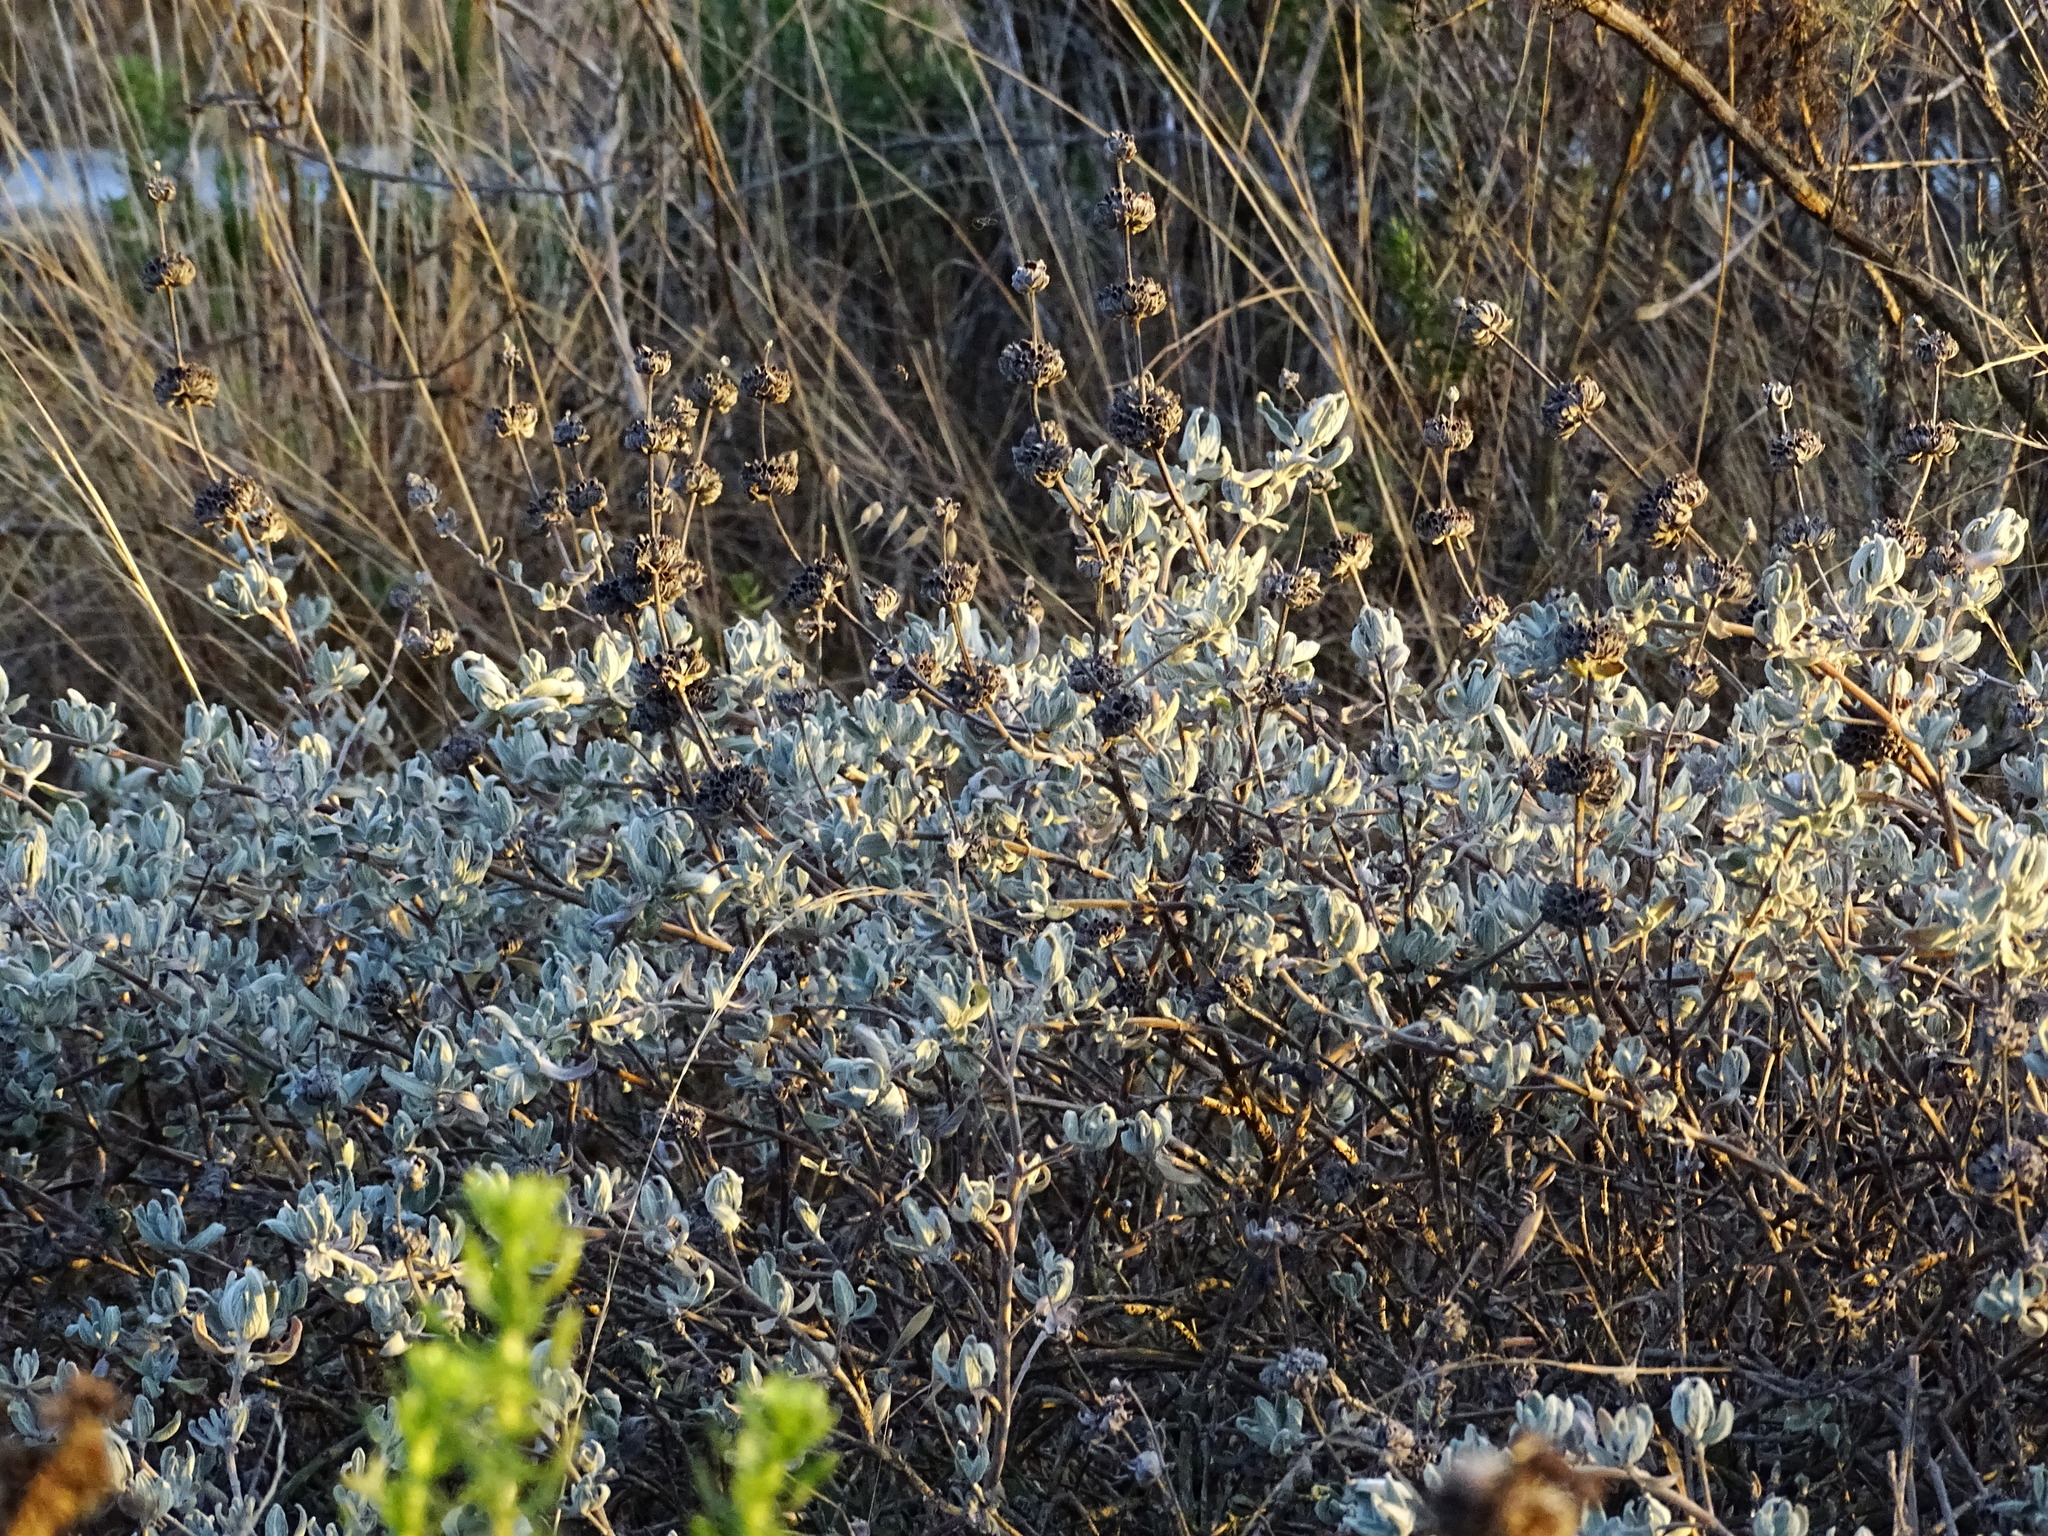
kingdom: Plantae
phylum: Tracheophyta
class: Magnoliopsida
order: Lamiales
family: Lamiaceae
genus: Salvia
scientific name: Salvia leucophylla
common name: Purple sage
